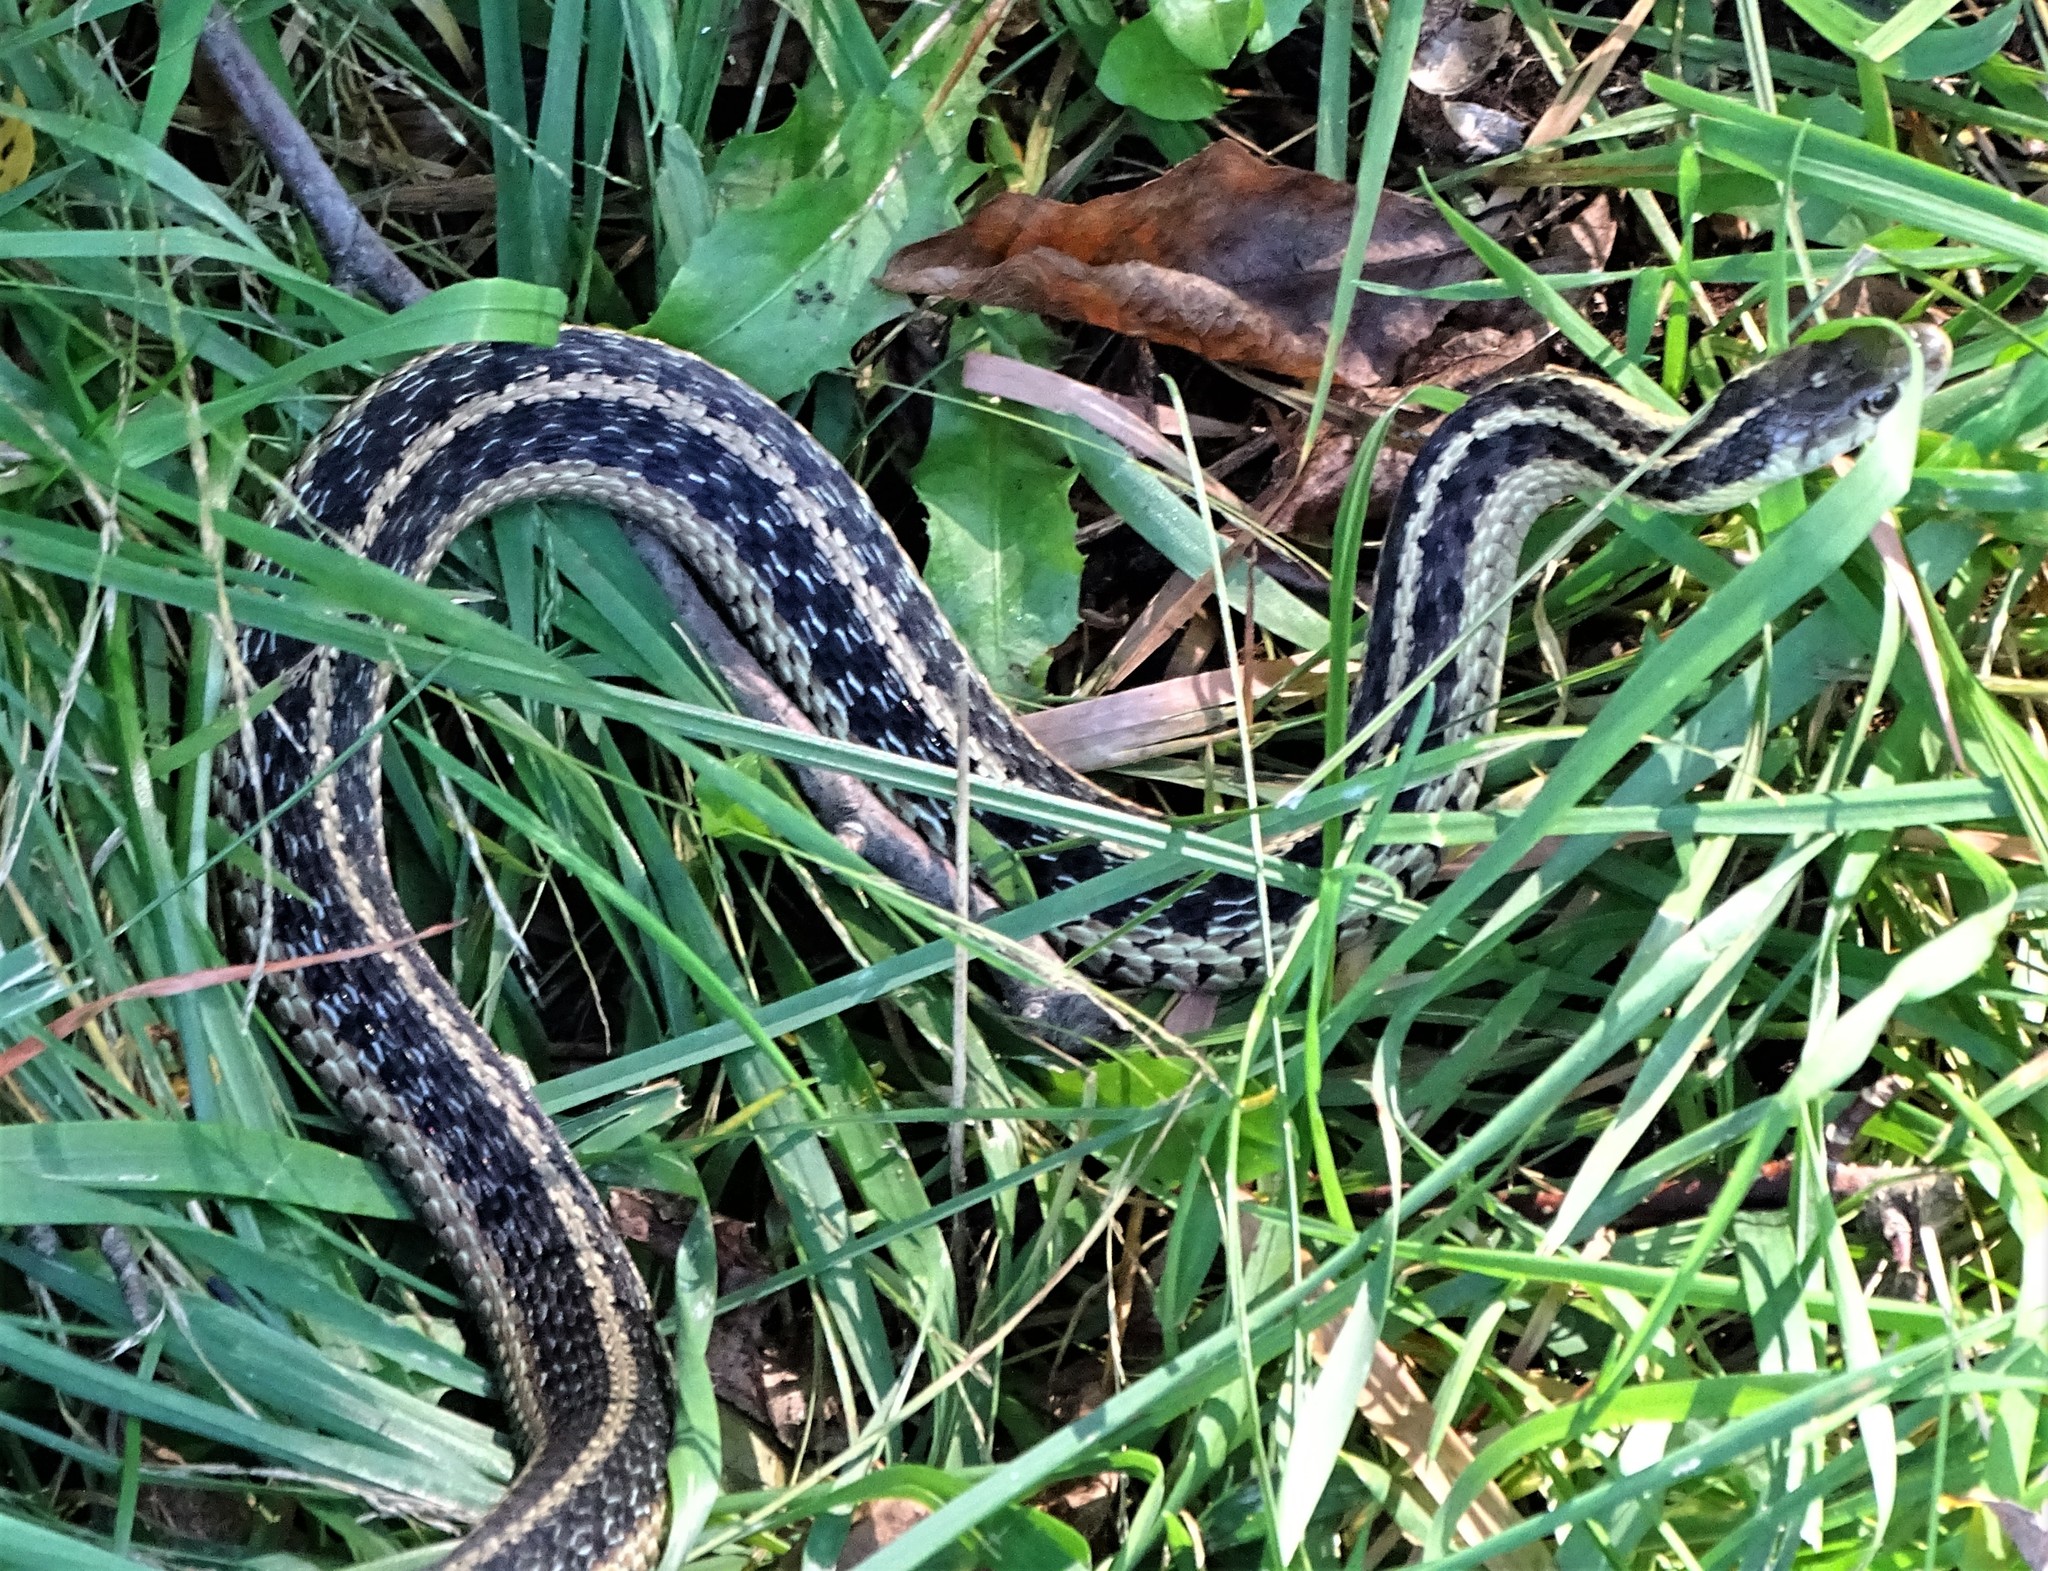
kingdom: Animalia
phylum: Chordata
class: Squamata
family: Colubridae
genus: Thamnophis
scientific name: Thamnophis sirtalis
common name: Common garter snake
